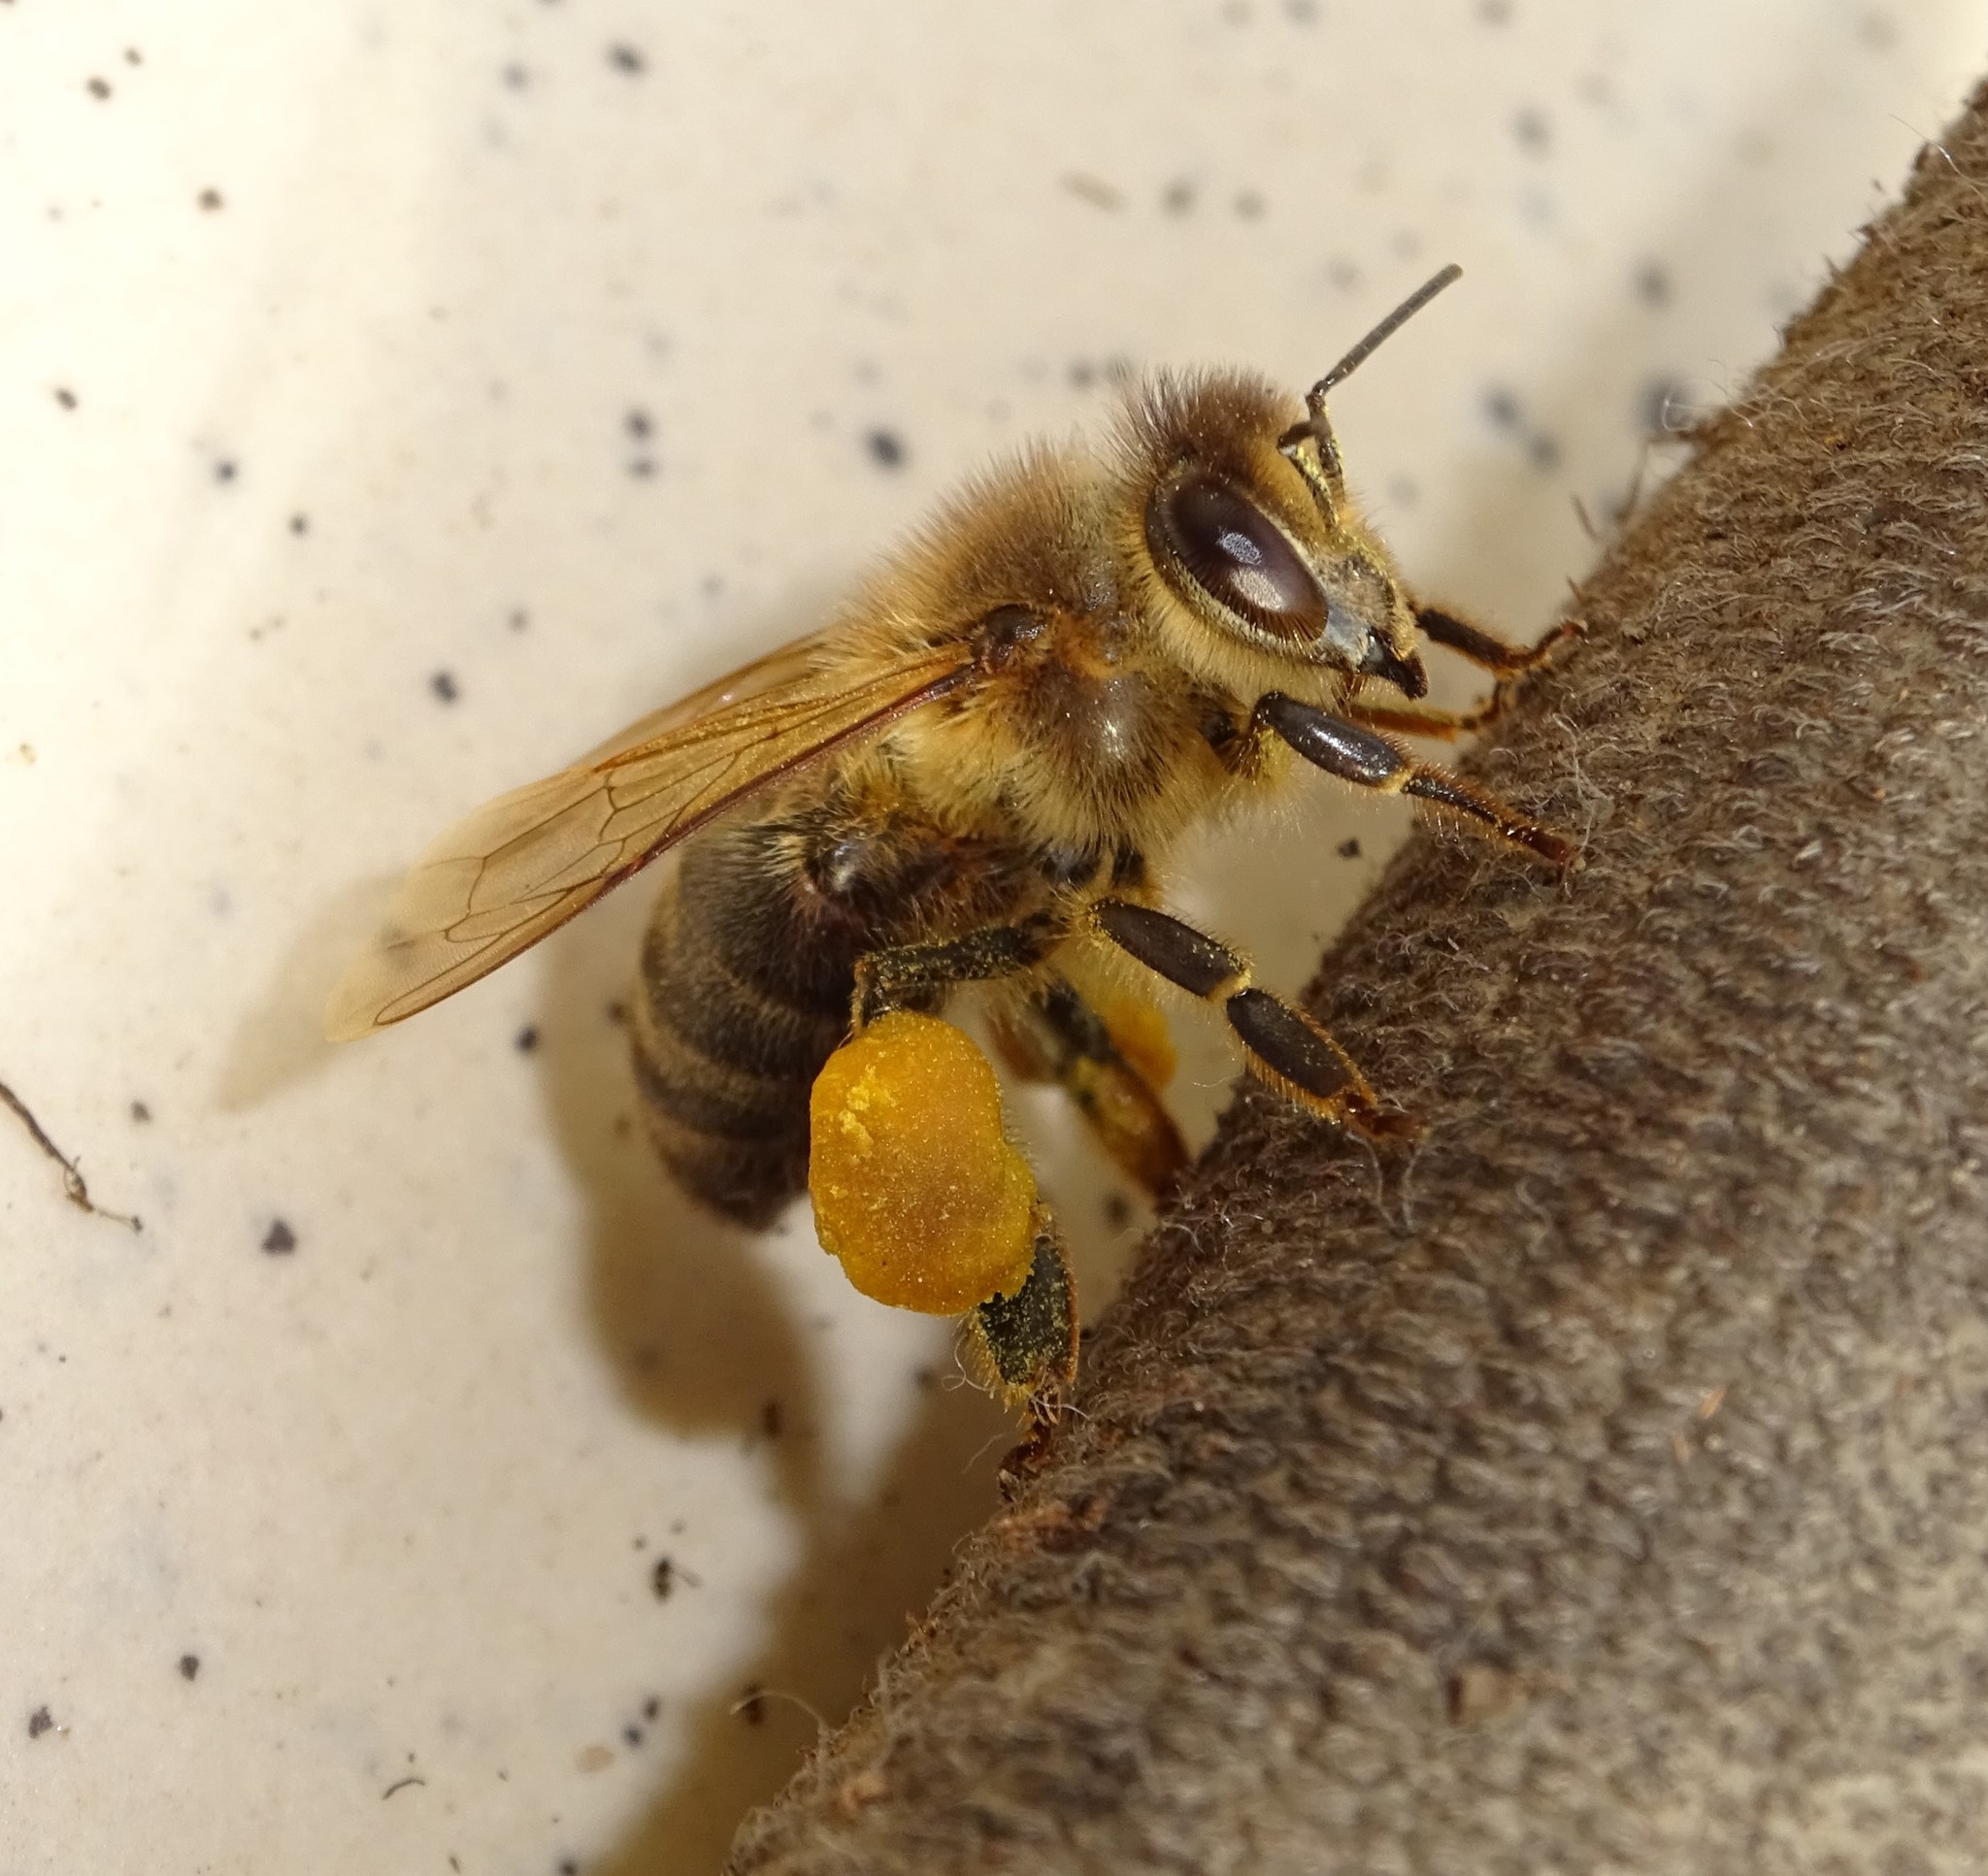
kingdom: Animalia
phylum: Arthropoda
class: Insecta
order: Hymenoptera
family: Apidae
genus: Apis
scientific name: Apis mellifera
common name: Honey bee
